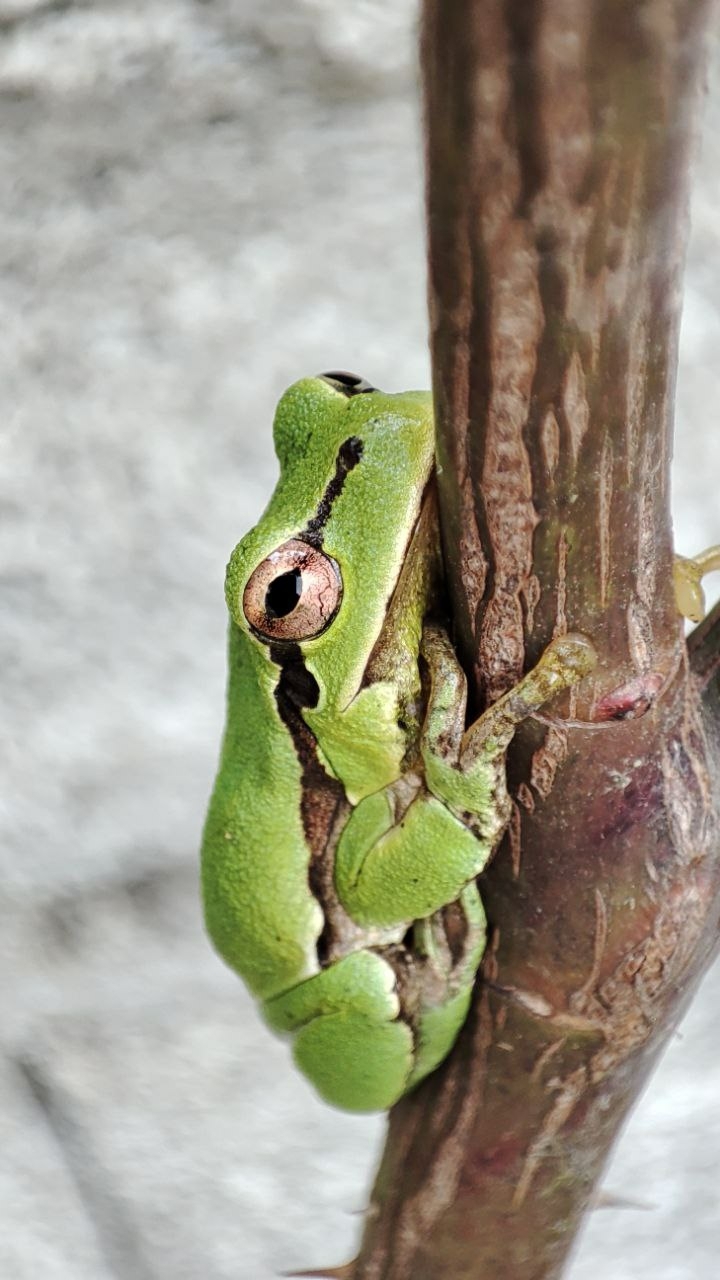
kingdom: Animalia
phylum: Chordata
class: Amphibia
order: Anura
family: Hylidae
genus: Hyla
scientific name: Hyla orientalis
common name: Caucasian treefrog
